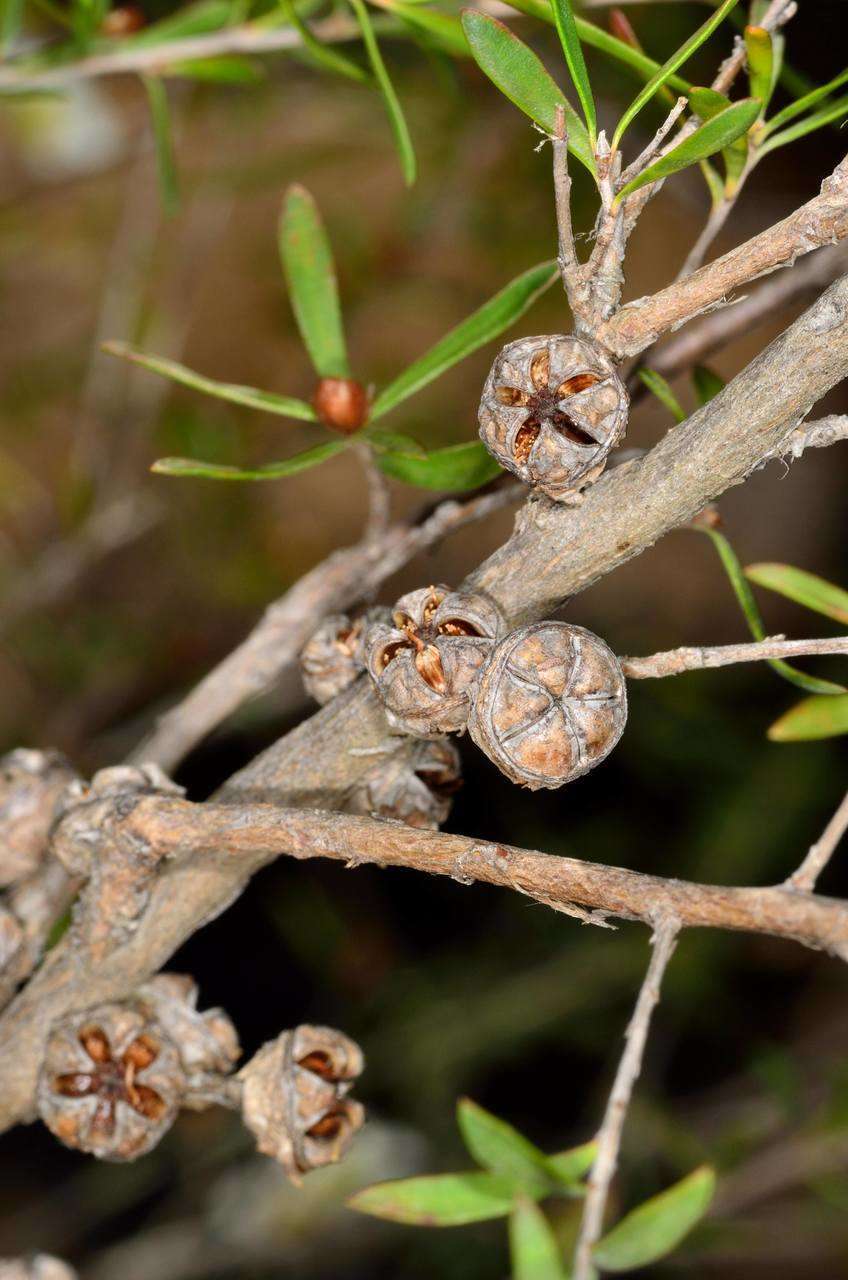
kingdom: Plantae
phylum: Tracheophyta
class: Magnoliopsida
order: Myrtales
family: Myrtaceae
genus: Leptospermum
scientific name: Leptospermum obovatum
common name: River teatree
